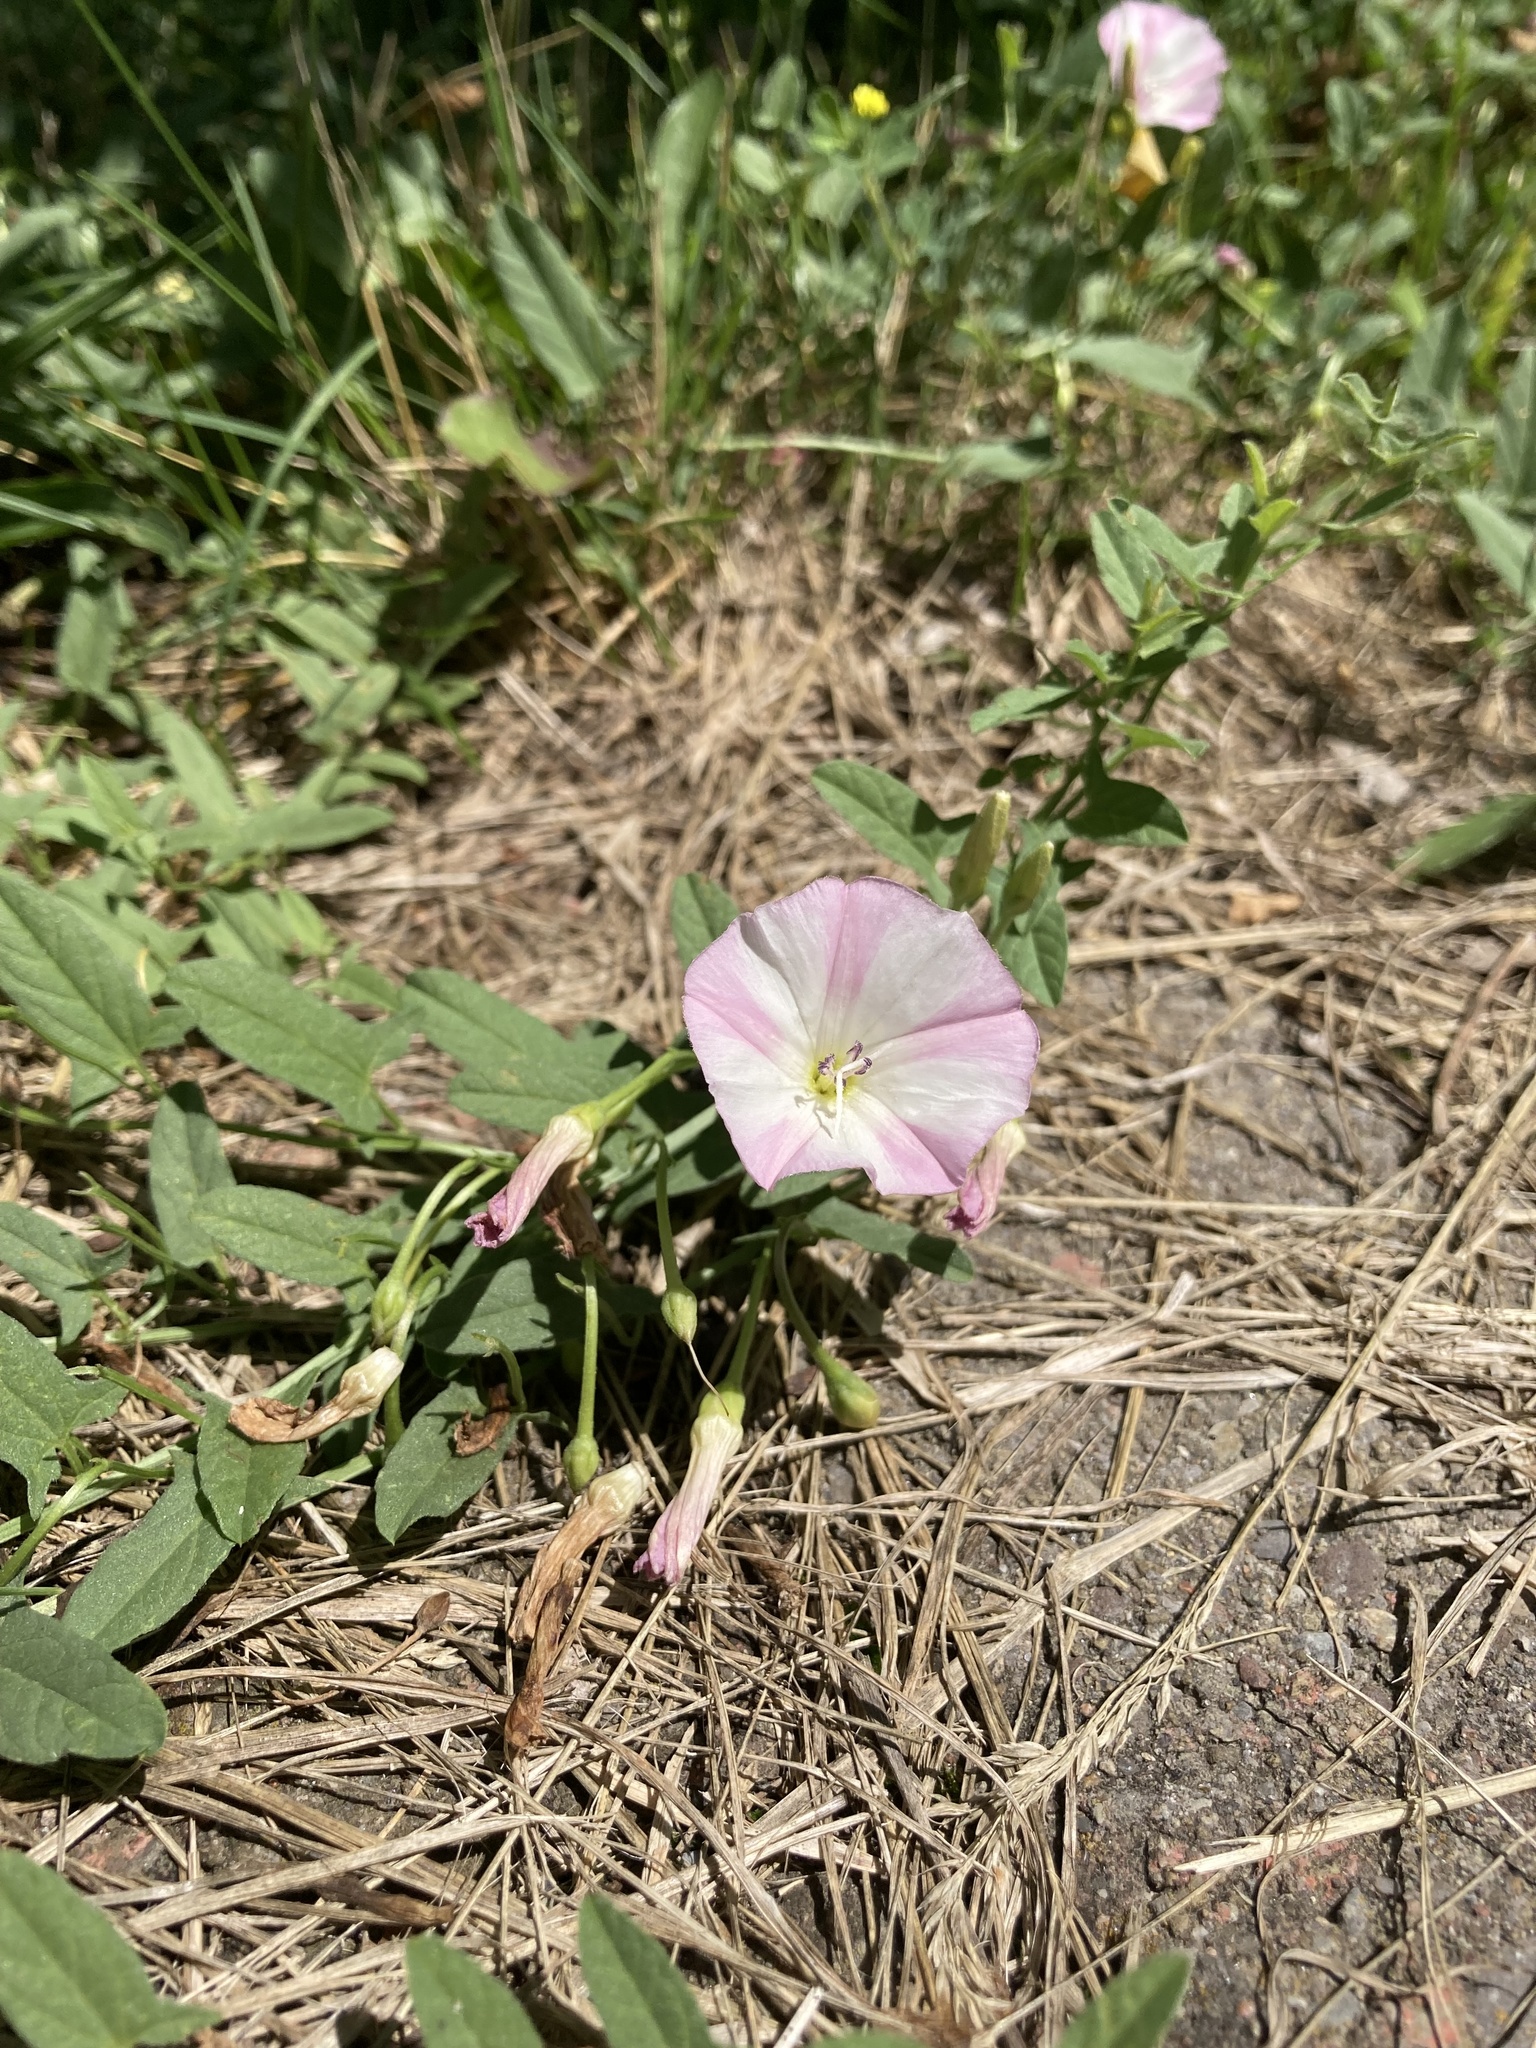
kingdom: Plantae
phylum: Tracheophyta
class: Magnoliopsida
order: Solanales
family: Convolvulaceae
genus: Convolvulus
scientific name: Convolvulus arvensis
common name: Field bindweed
